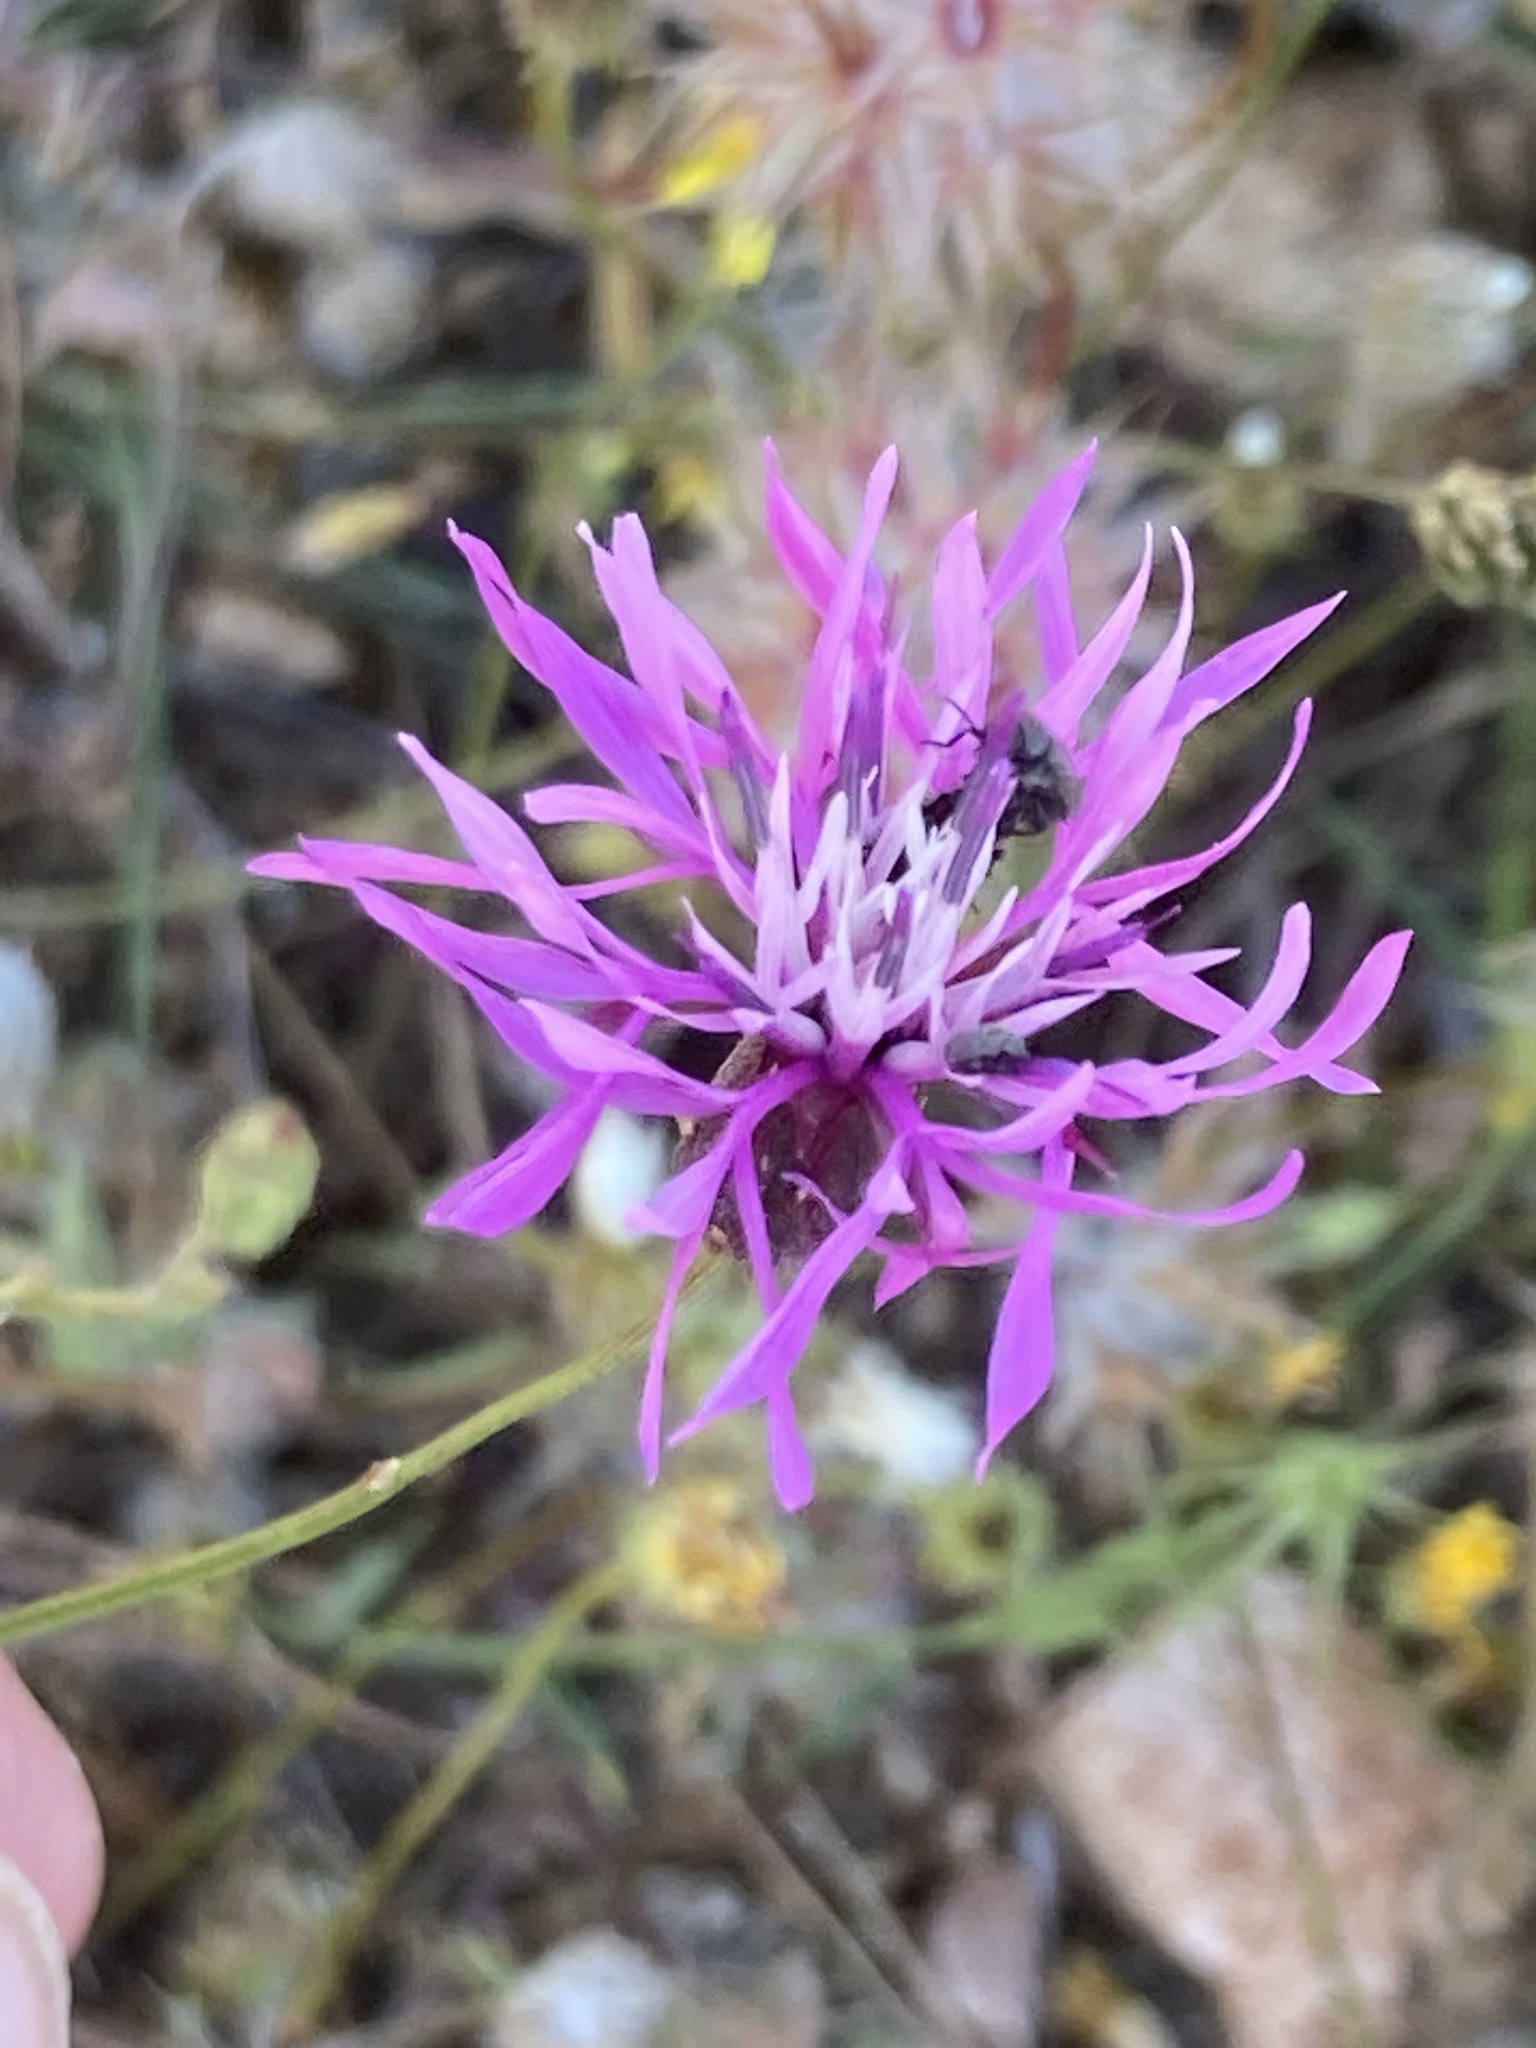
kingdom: Plantae
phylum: Tracheophyta
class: Magnoliopsida
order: Asterales
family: Asteraceae
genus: Crupina
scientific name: Crupina crupinastrum
